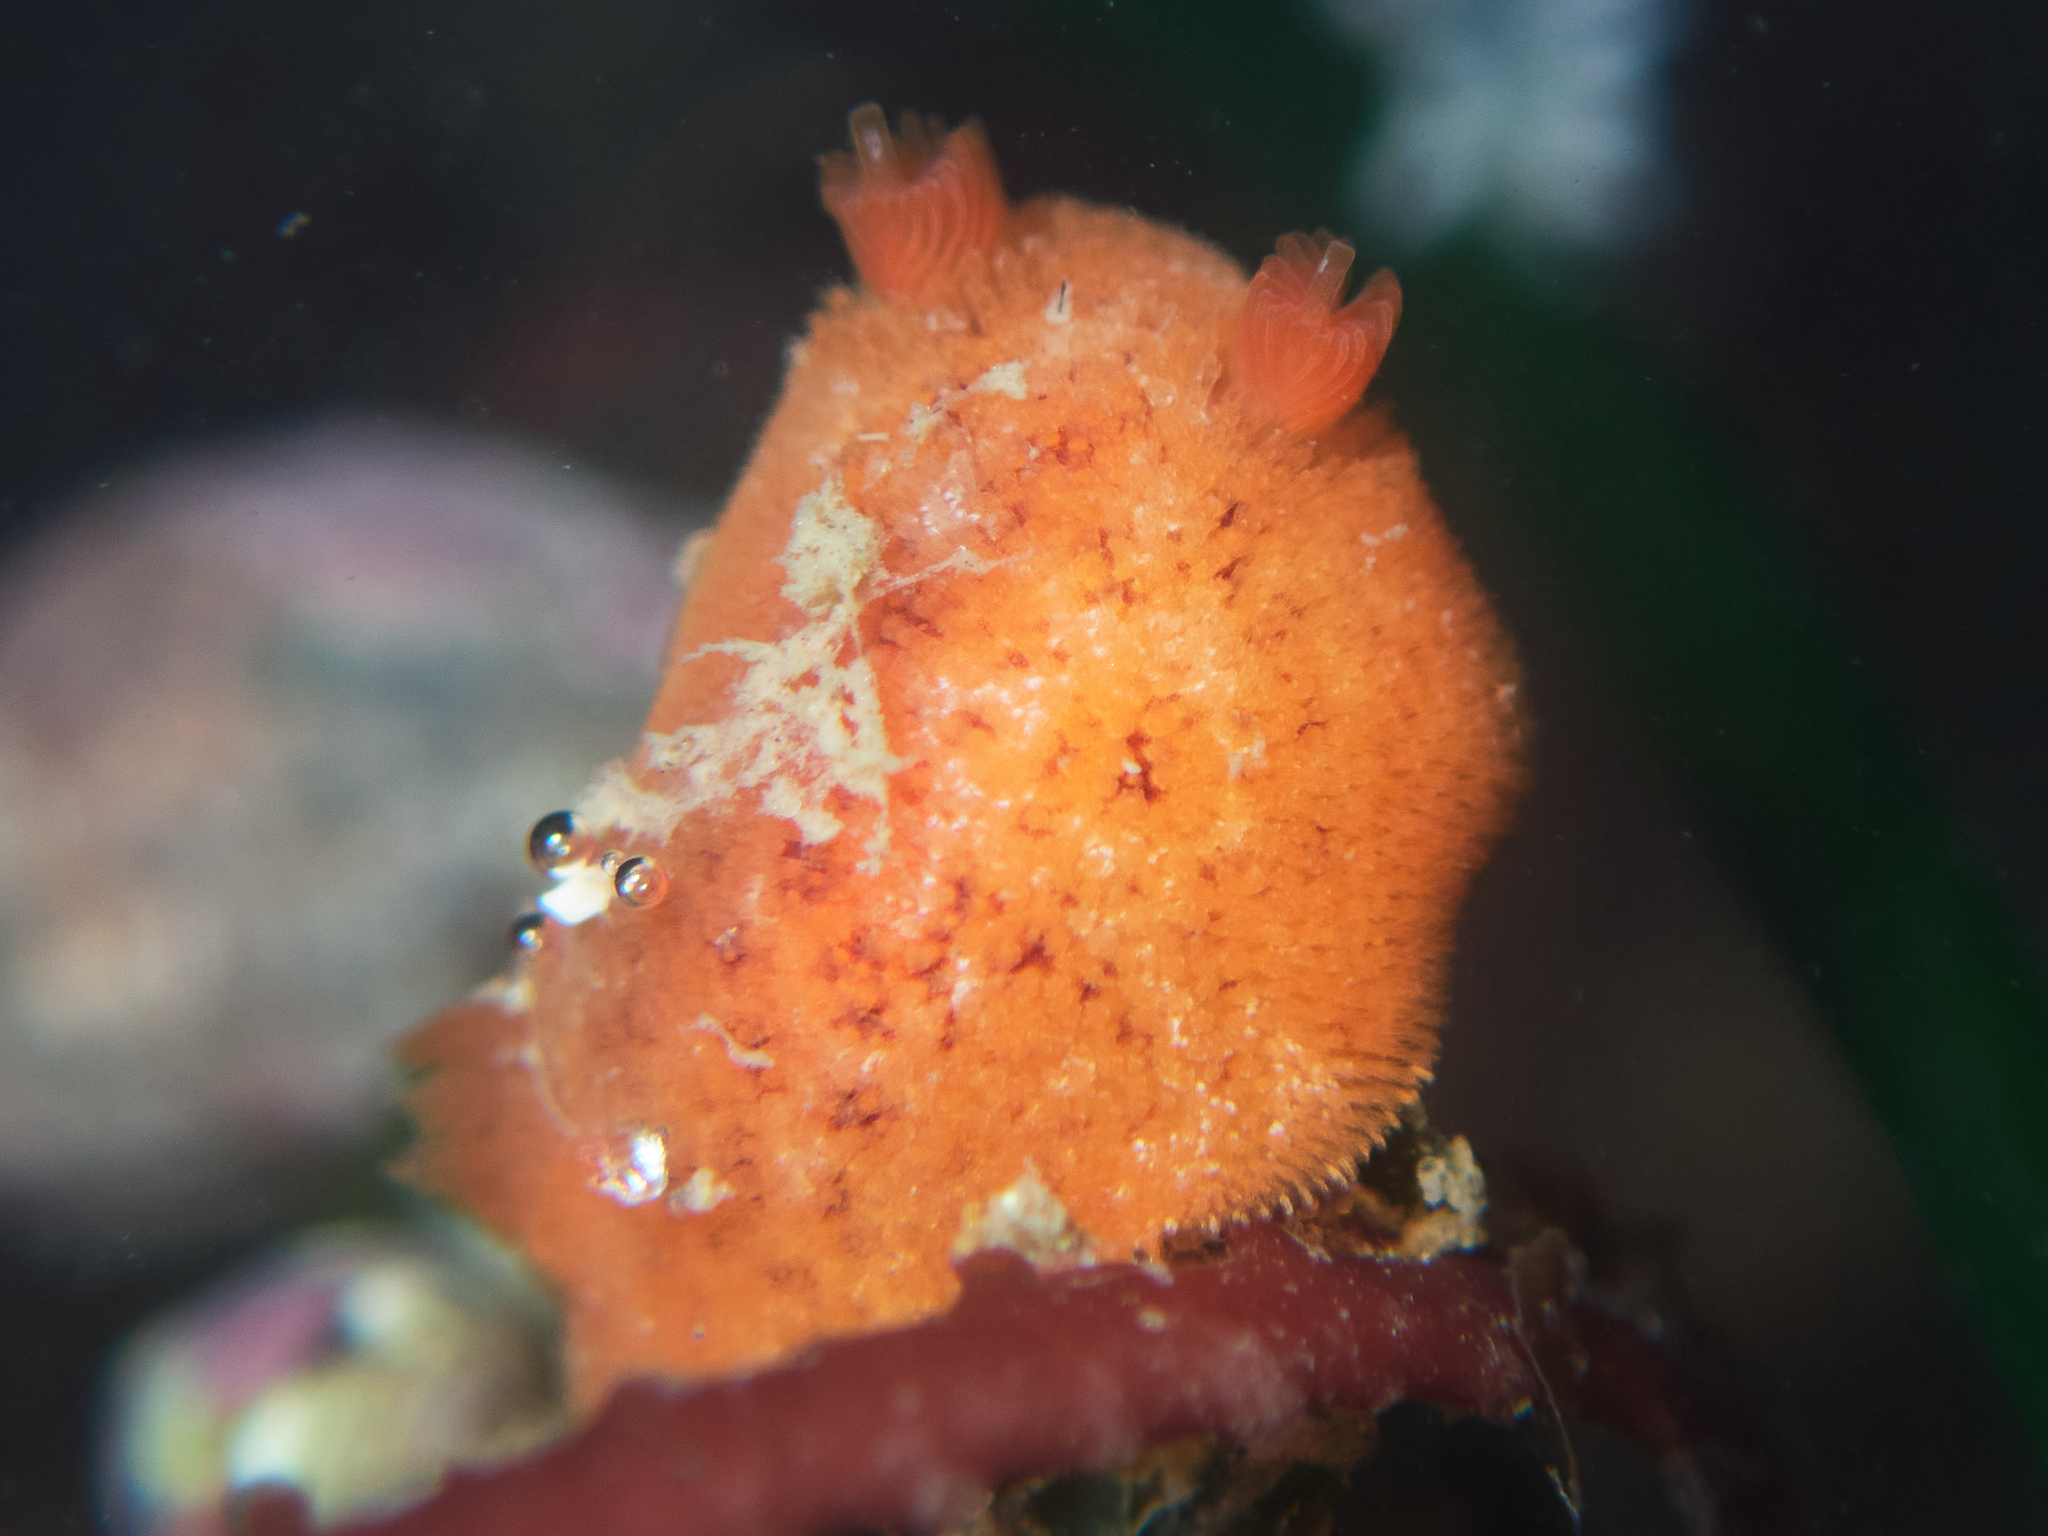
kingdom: Animalia
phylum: Mollusca
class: Gastropoda
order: Nudibranchia
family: Discodorididae
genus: Rostanga
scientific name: Rostanga pulchra
